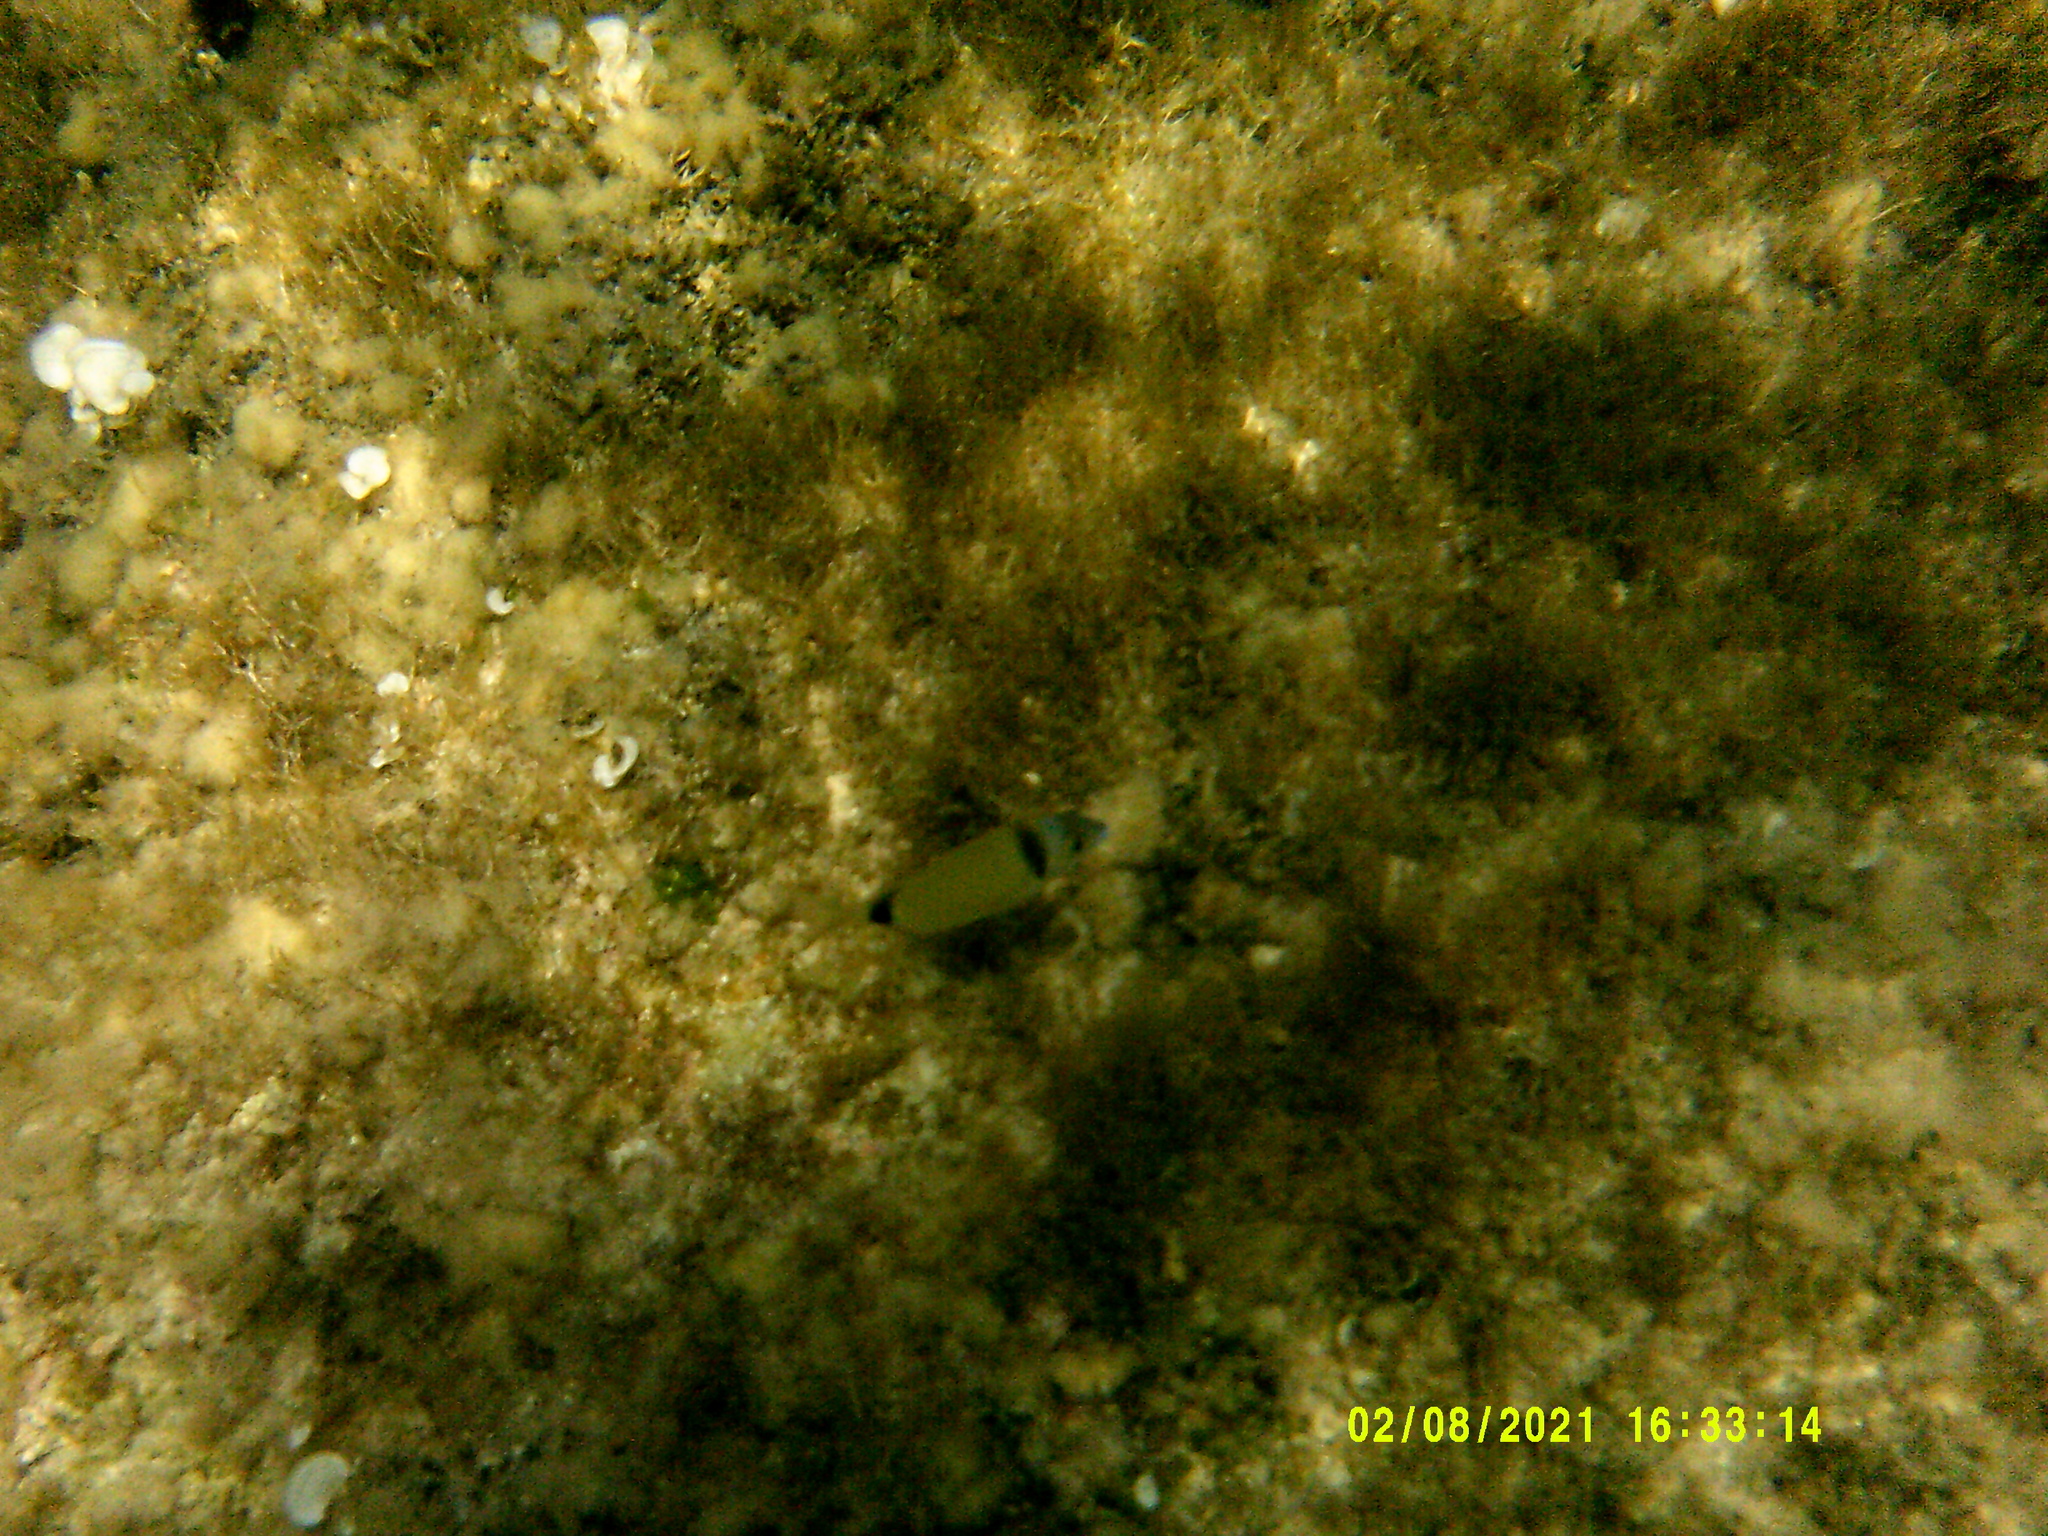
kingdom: Animalia
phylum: Chordata
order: Perciformes
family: Sparidae
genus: Diplodus
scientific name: Diplodus vulgaris
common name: Common two-banded seabream
